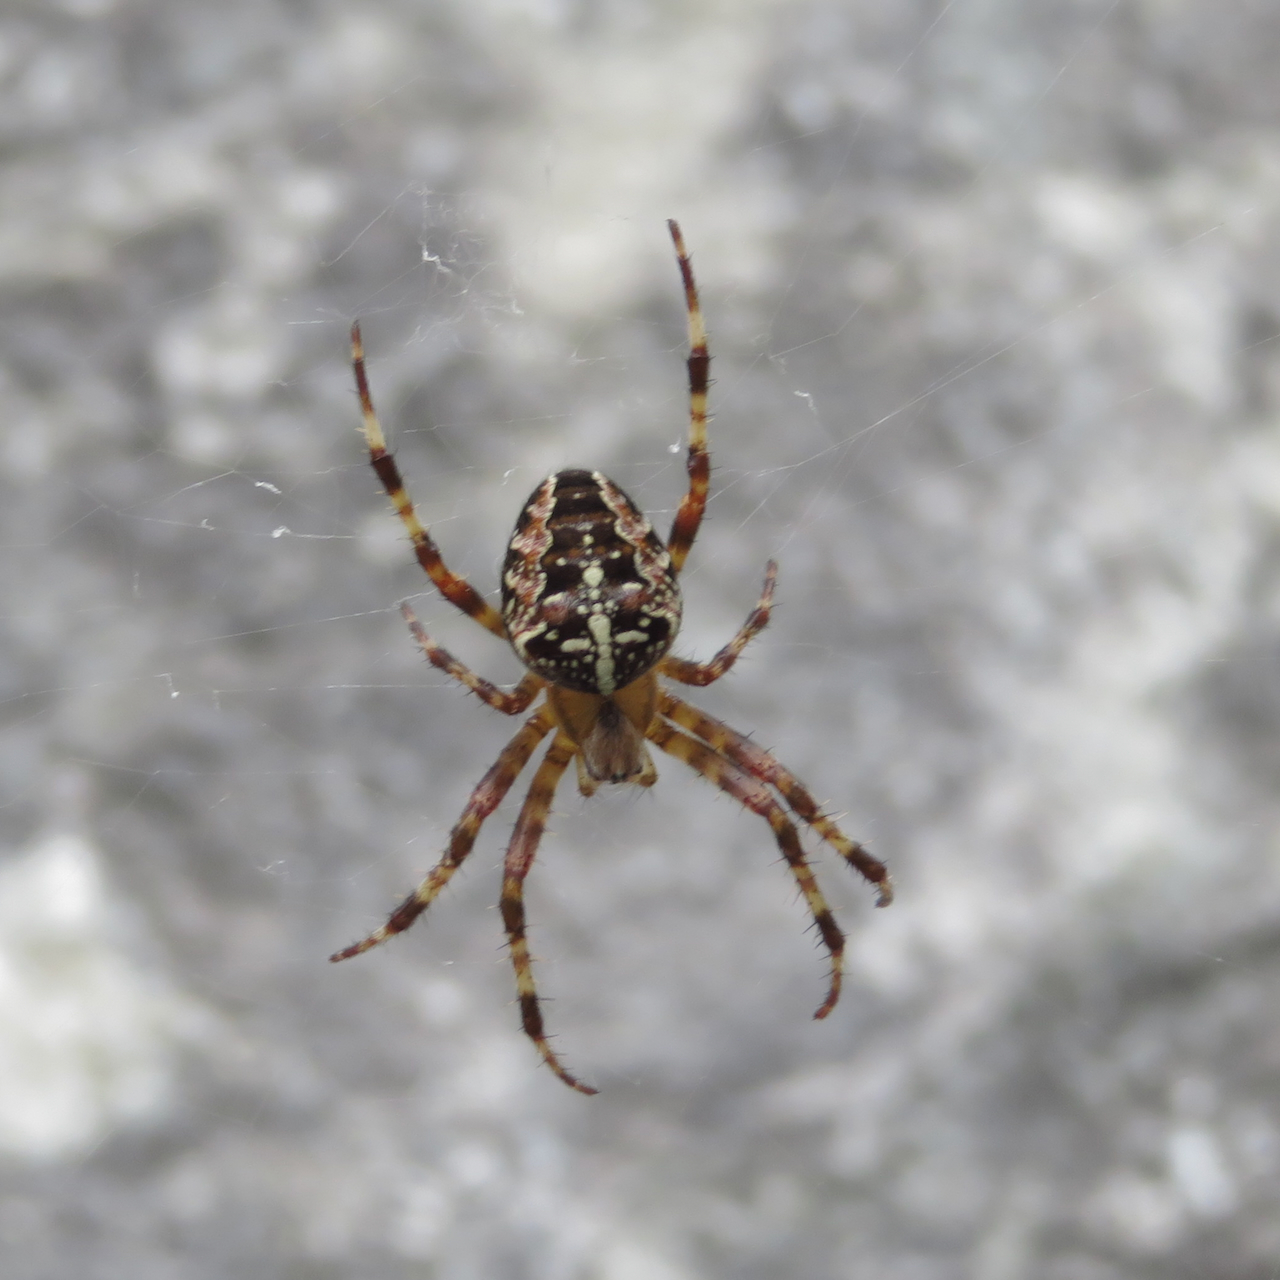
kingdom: Animalia
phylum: Arthropoda
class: Arachnida
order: Araneae
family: Araneidae
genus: Araneus
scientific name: Araneus diadematus
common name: Cross orbweaver
